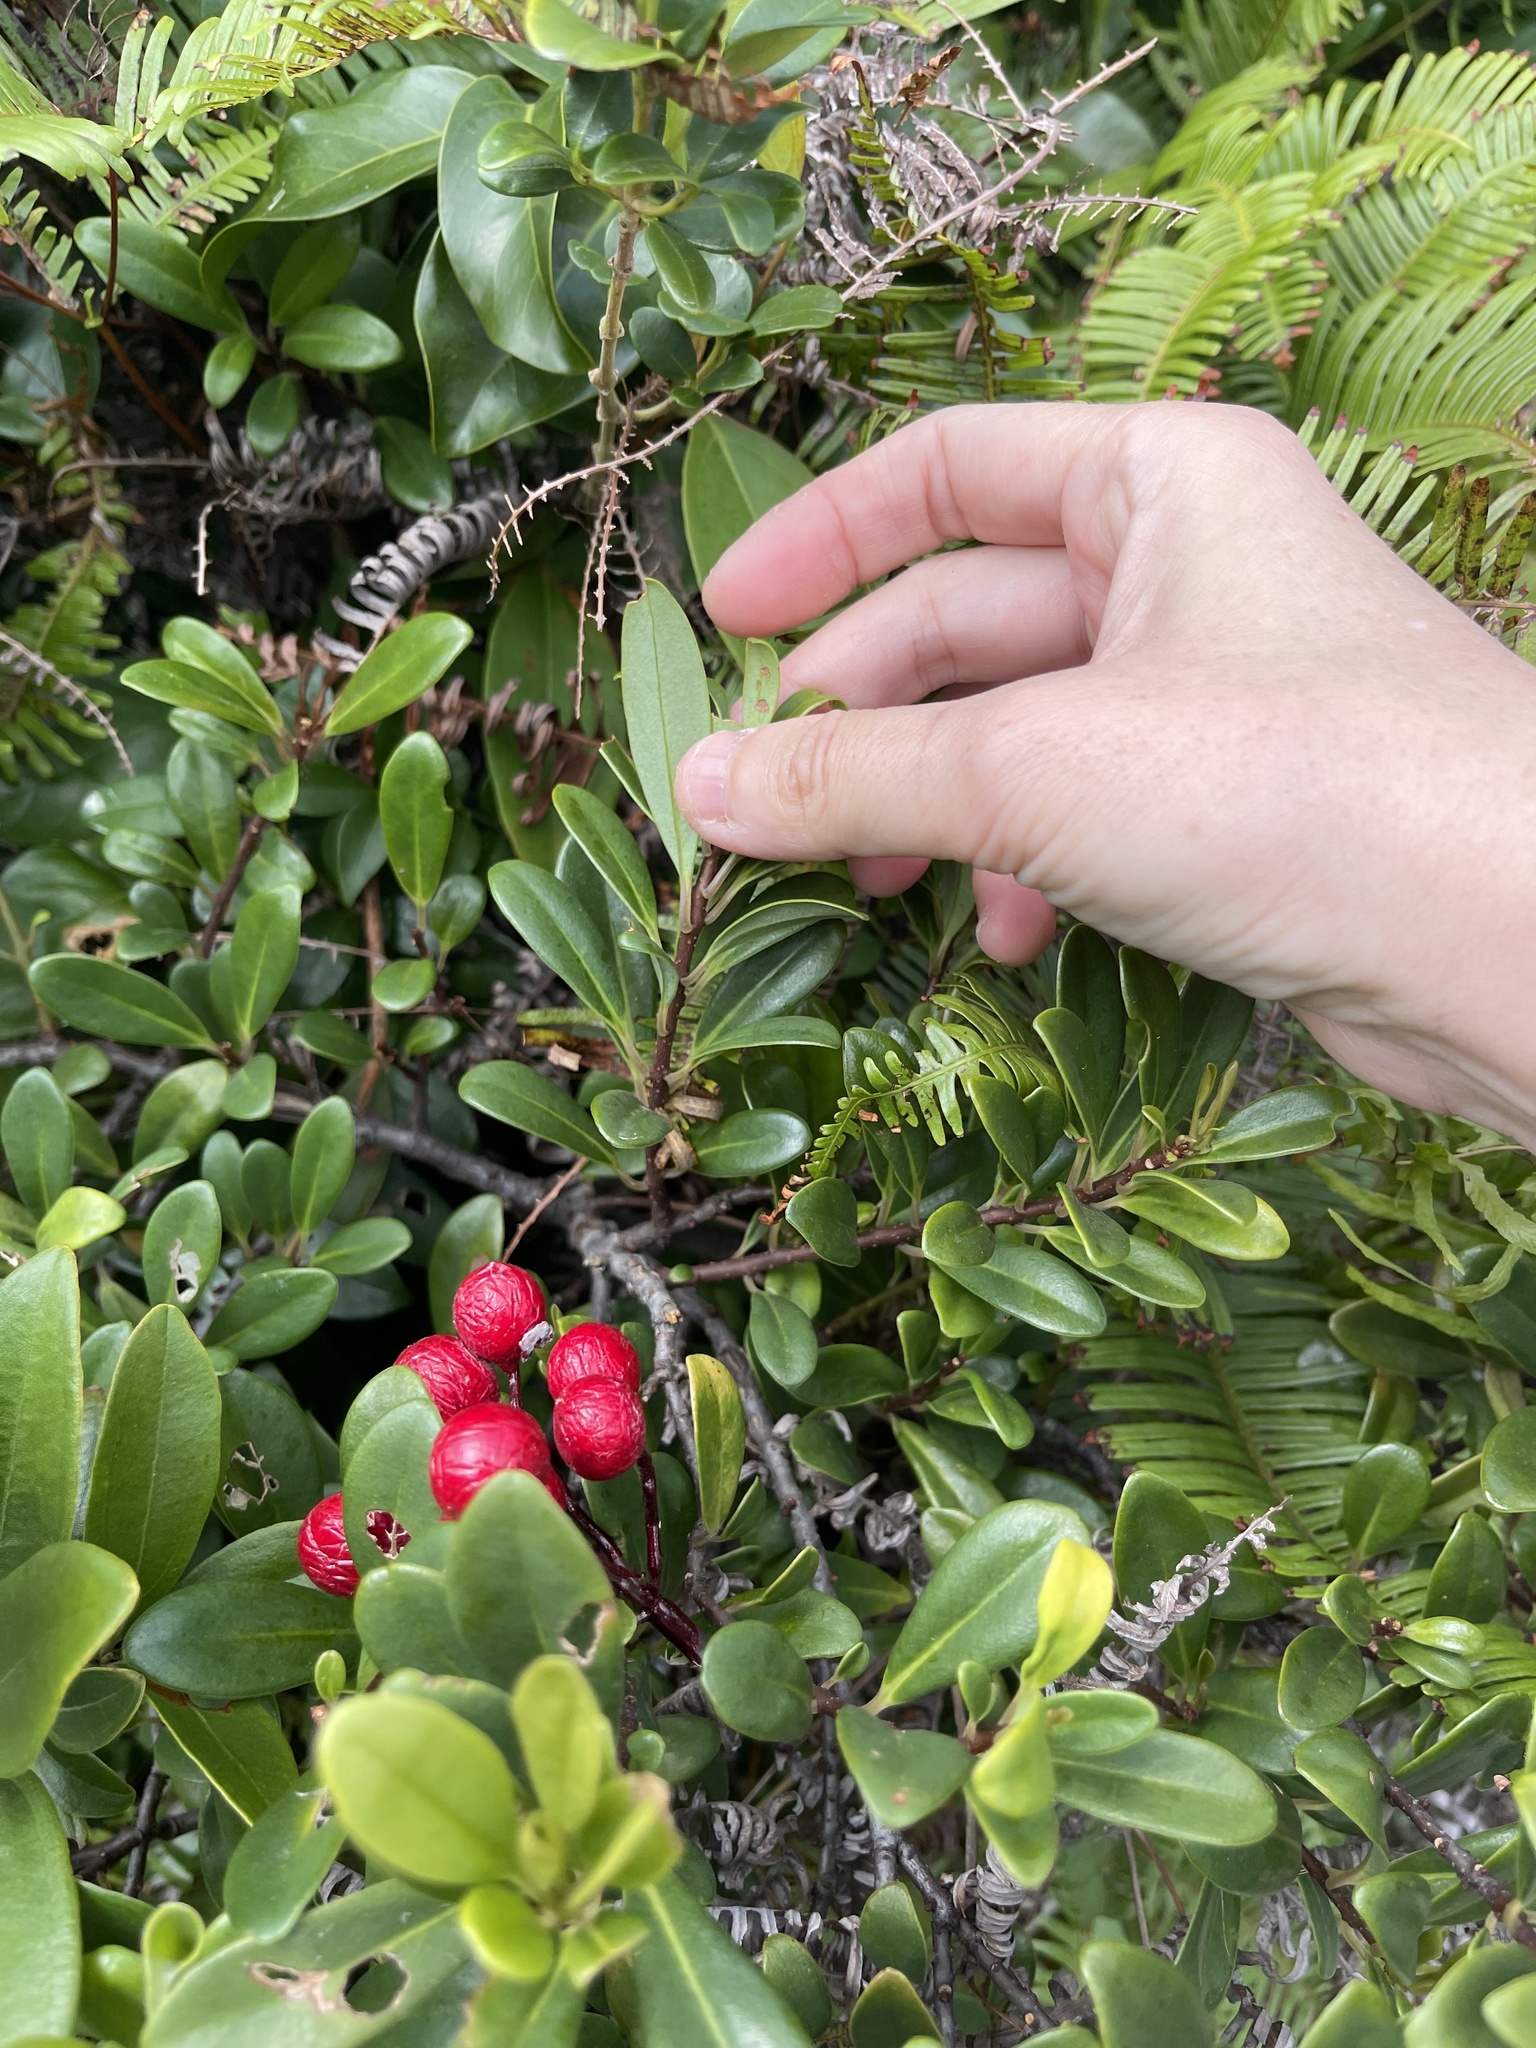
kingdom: Plantae
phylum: Tracheophyta
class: Magnoliopsida
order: Ericales
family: Primulaceae
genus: Embelia
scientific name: Embelia laeta
